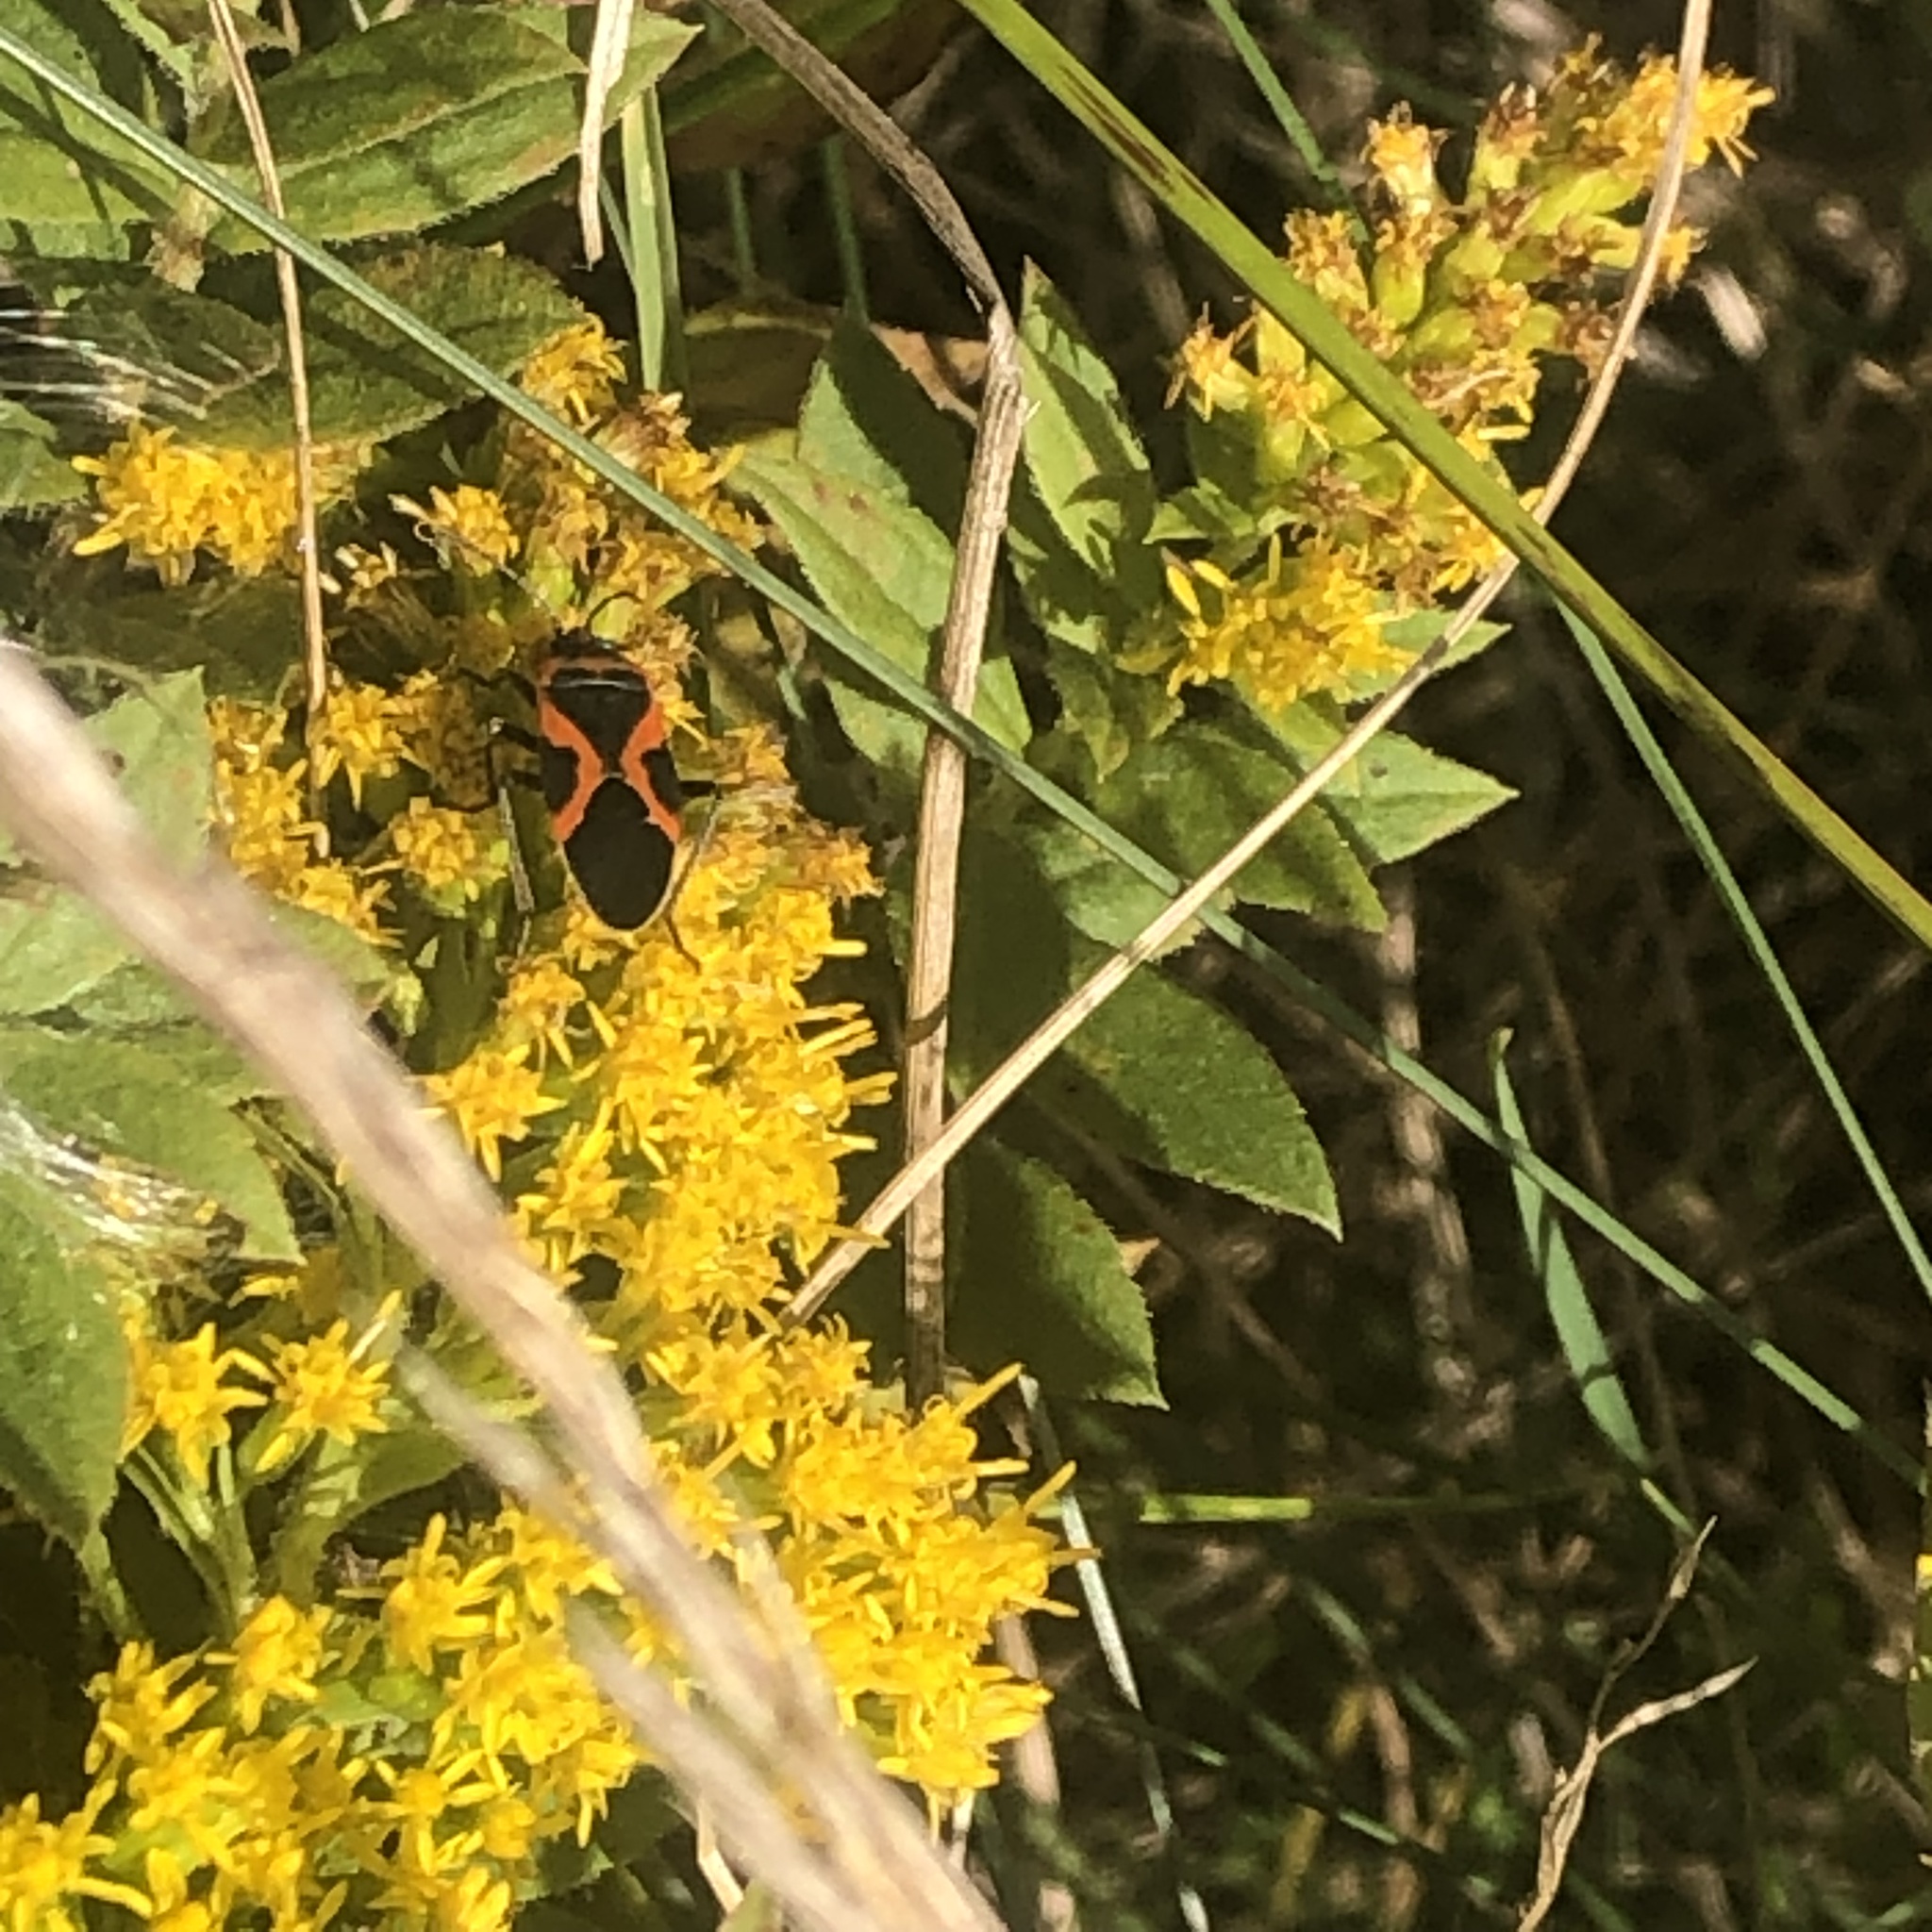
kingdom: Animalia
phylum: Arthropoda
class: Insecta
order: Hemiptera
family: Lygaeidae
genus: Lygaeus
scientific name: Lygaeus kalmii
